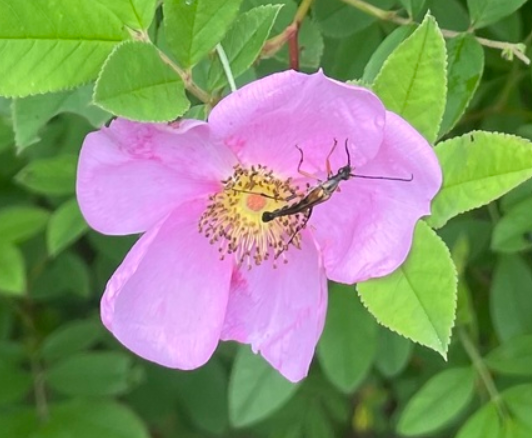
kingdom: Animalia
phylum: Arthropoda
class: Insecta
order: Coleoptera
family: Cerambycidae
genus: Strangalia
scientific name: Strangalia famelica
